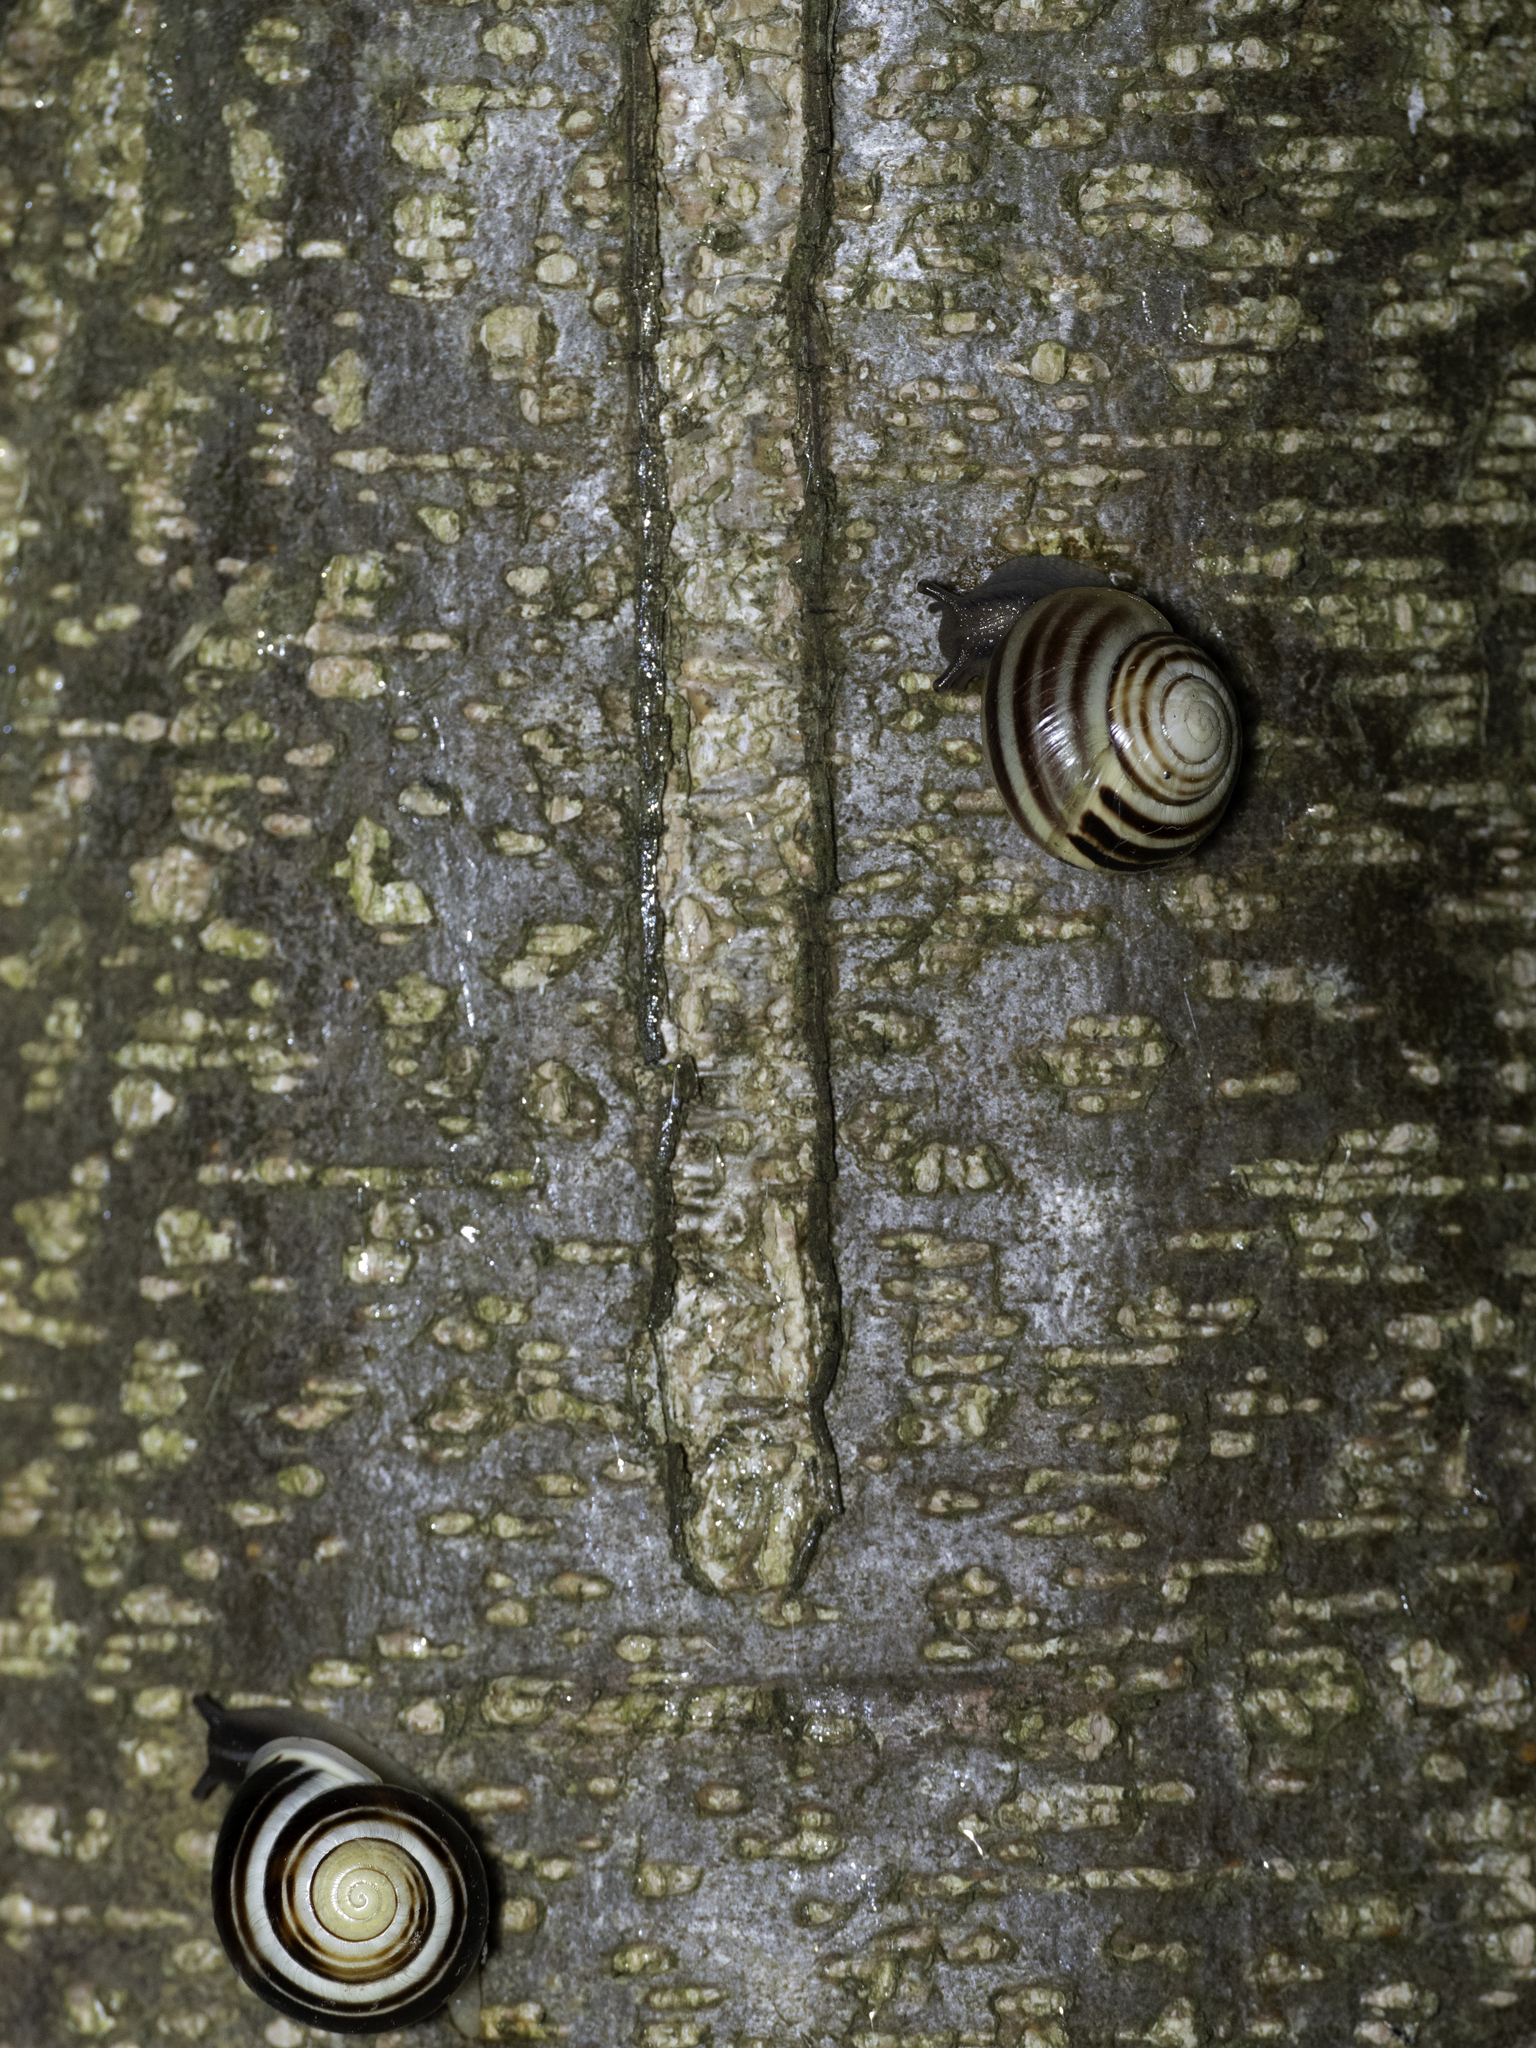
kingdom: Animalia
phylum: Mollusca
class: Gastropoda
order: Stylommatophora
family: Helicidae
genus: Cepaea
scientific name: Cepaea hortensis
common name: White-lip gardensnail
